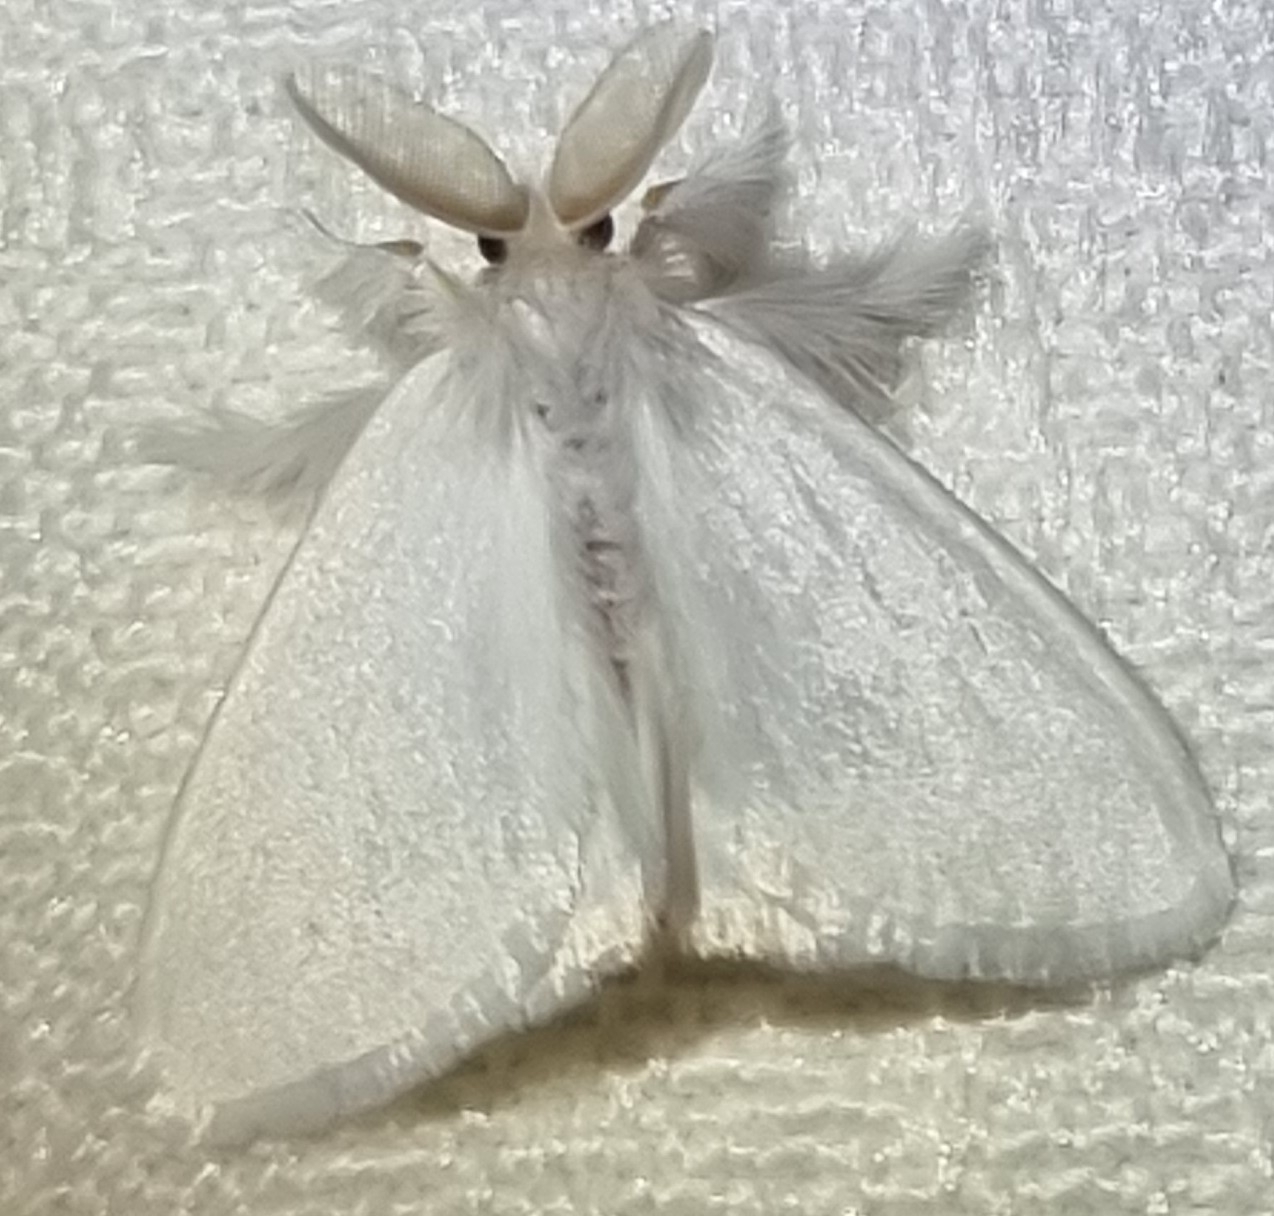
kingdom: Animalia
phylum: Arthropoda
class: Insecta
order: Lepidoptera
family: Erebidae
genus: Acyphas
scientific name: Acyphas chionitis
